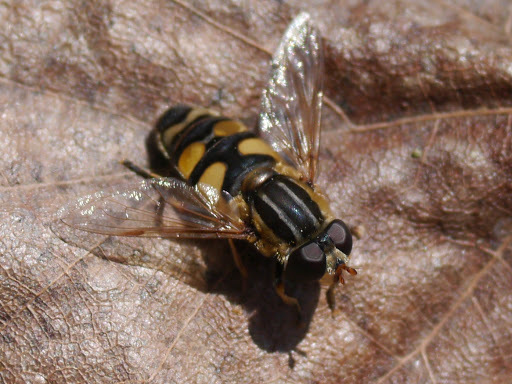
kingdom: Animalia
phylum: Arthropoda
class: Insecta
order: Diptera
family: Syrphidae
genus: Helophilus
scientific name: Helophilus fasciatus
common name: Narrow-headed marsh fly
